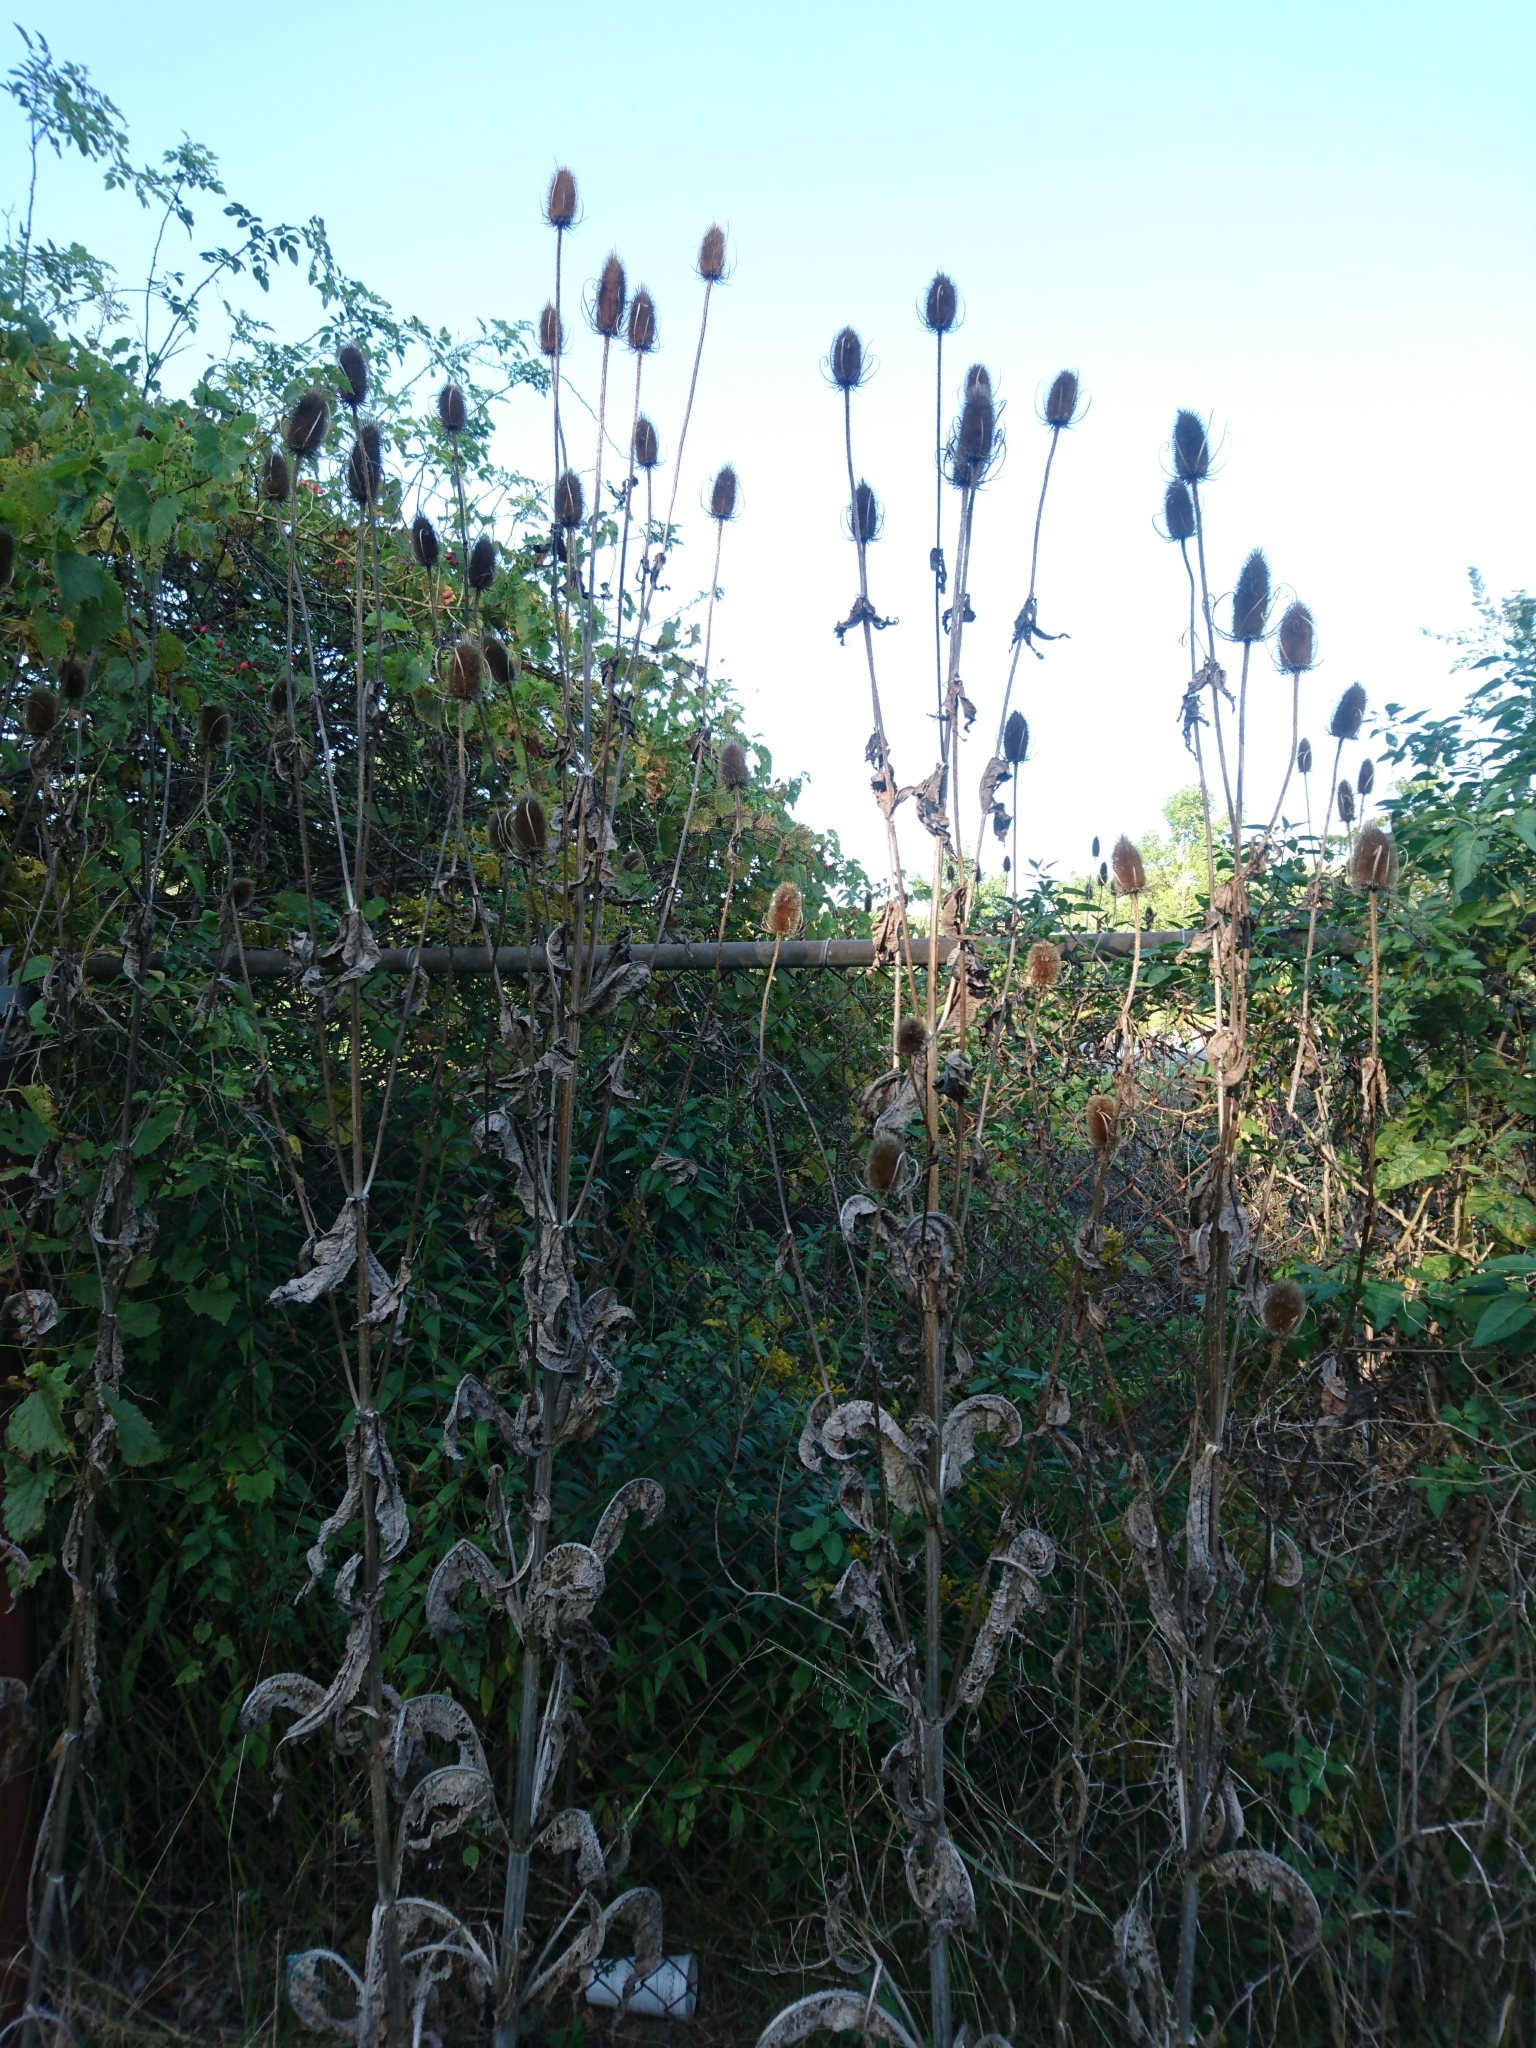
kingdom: Plantae
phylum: Tracheophyta
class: Magnoliopsida
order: Dipsacales
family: Caprifoliaceae
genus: Dipsacus
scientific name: Dipsacus fullonum
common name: Teasel
